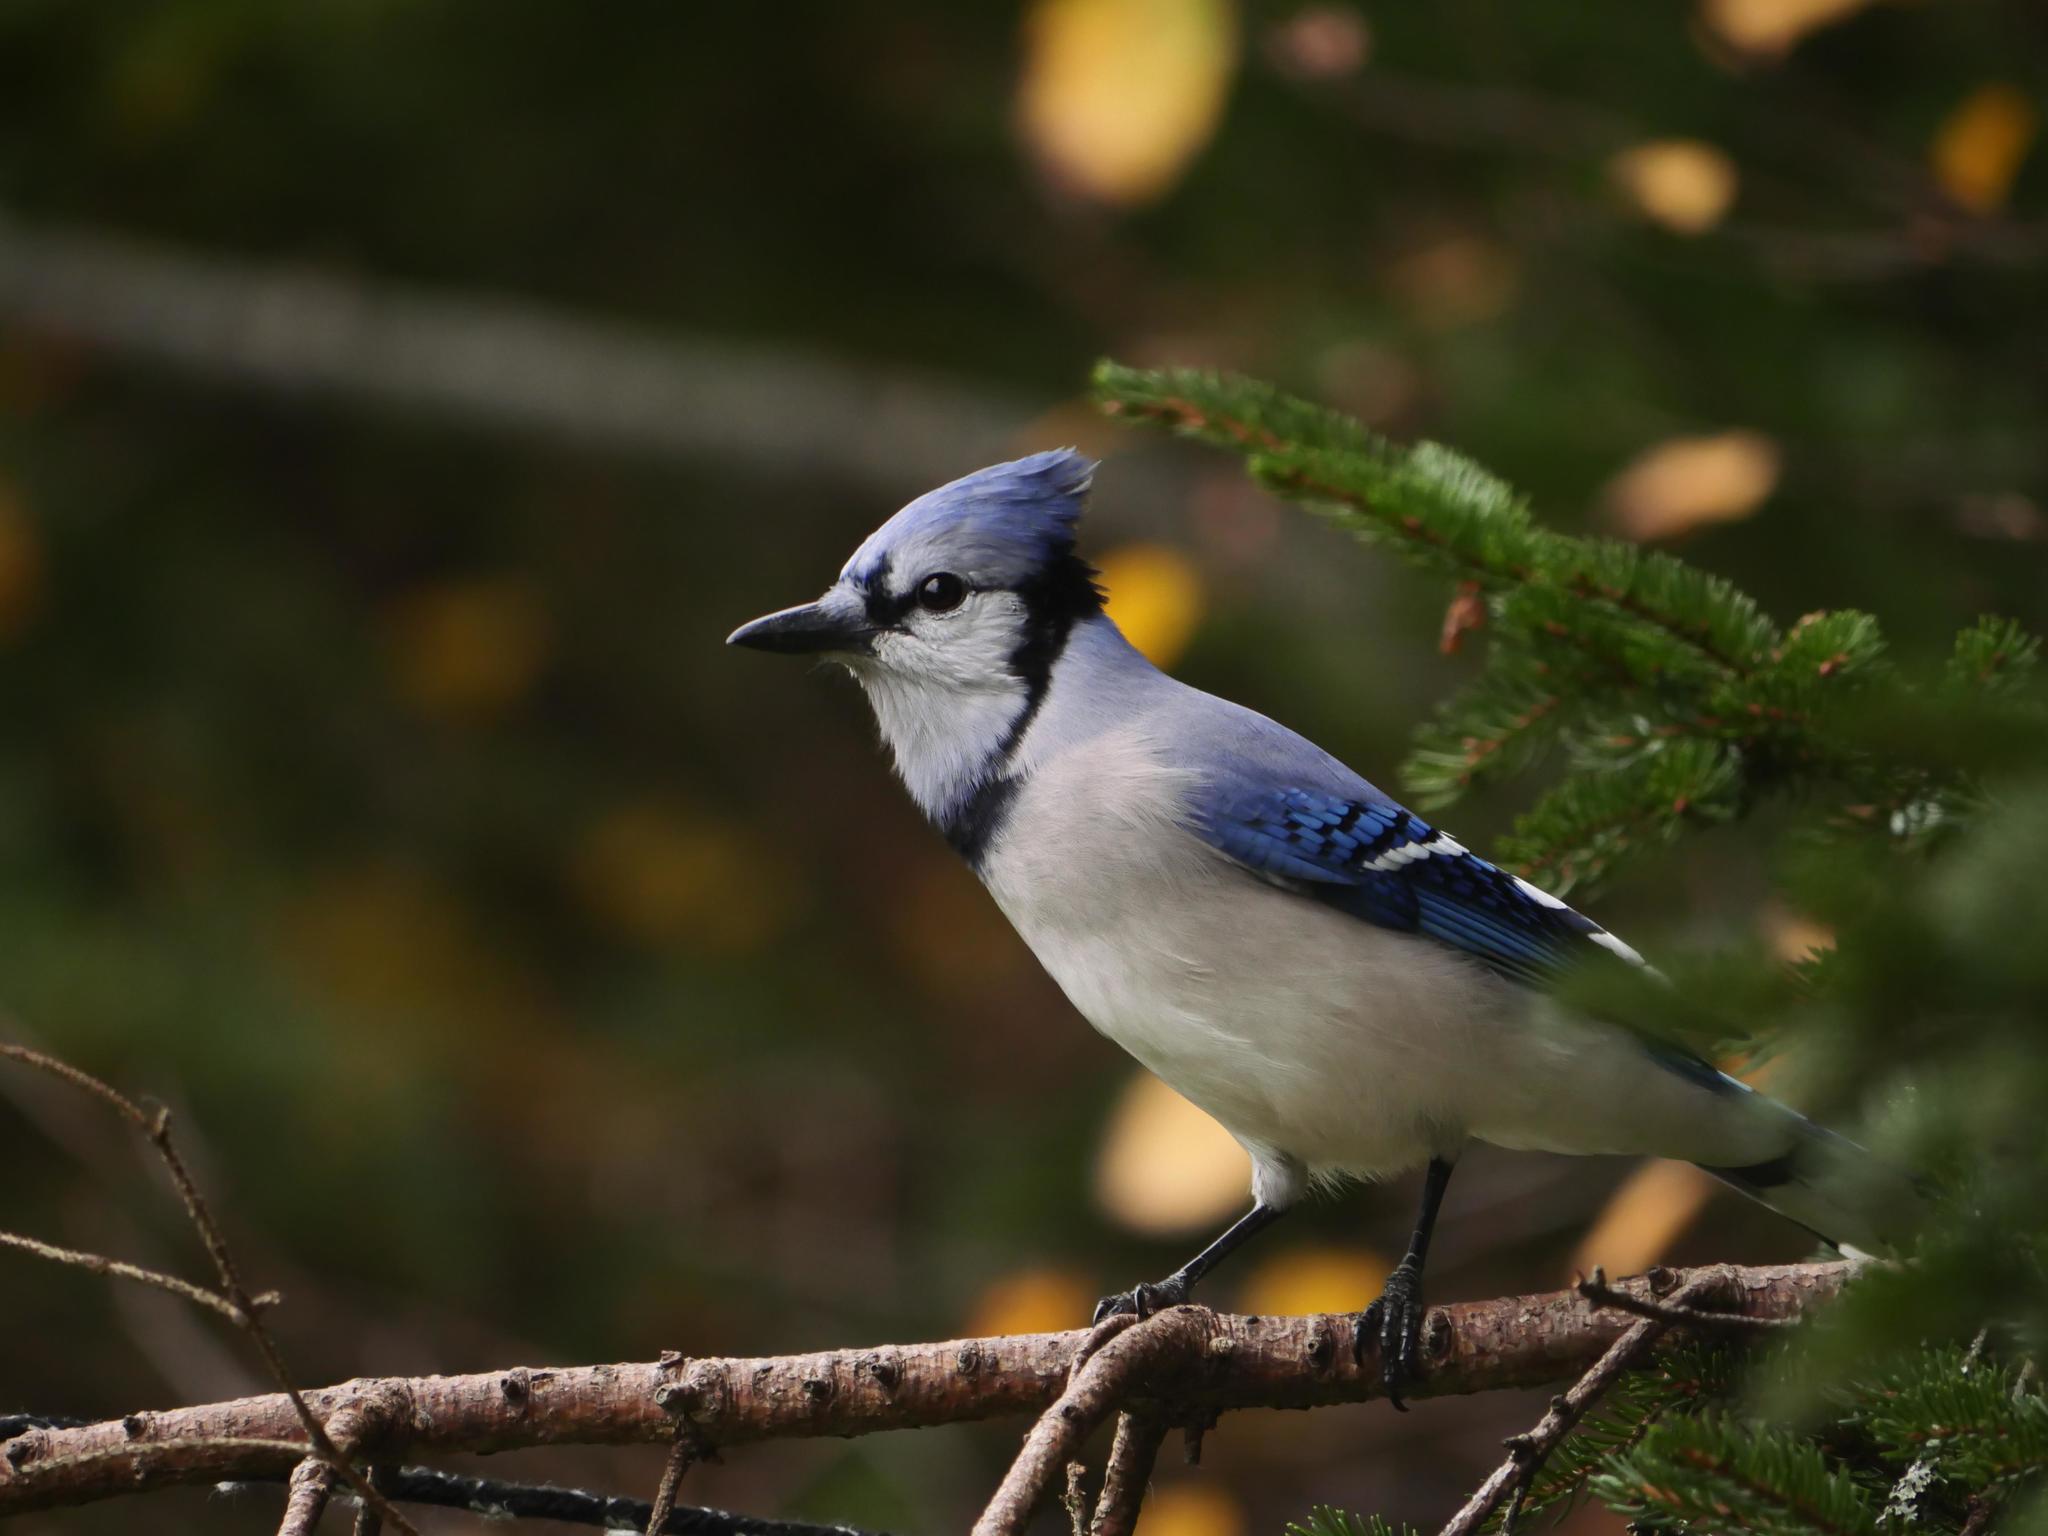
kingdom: Animalia
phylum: Chordata
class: Aves
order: Passeriformes
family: Corvidae
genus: Cyanocitta
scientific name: Cyanocitta cristata
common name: Blue jay
